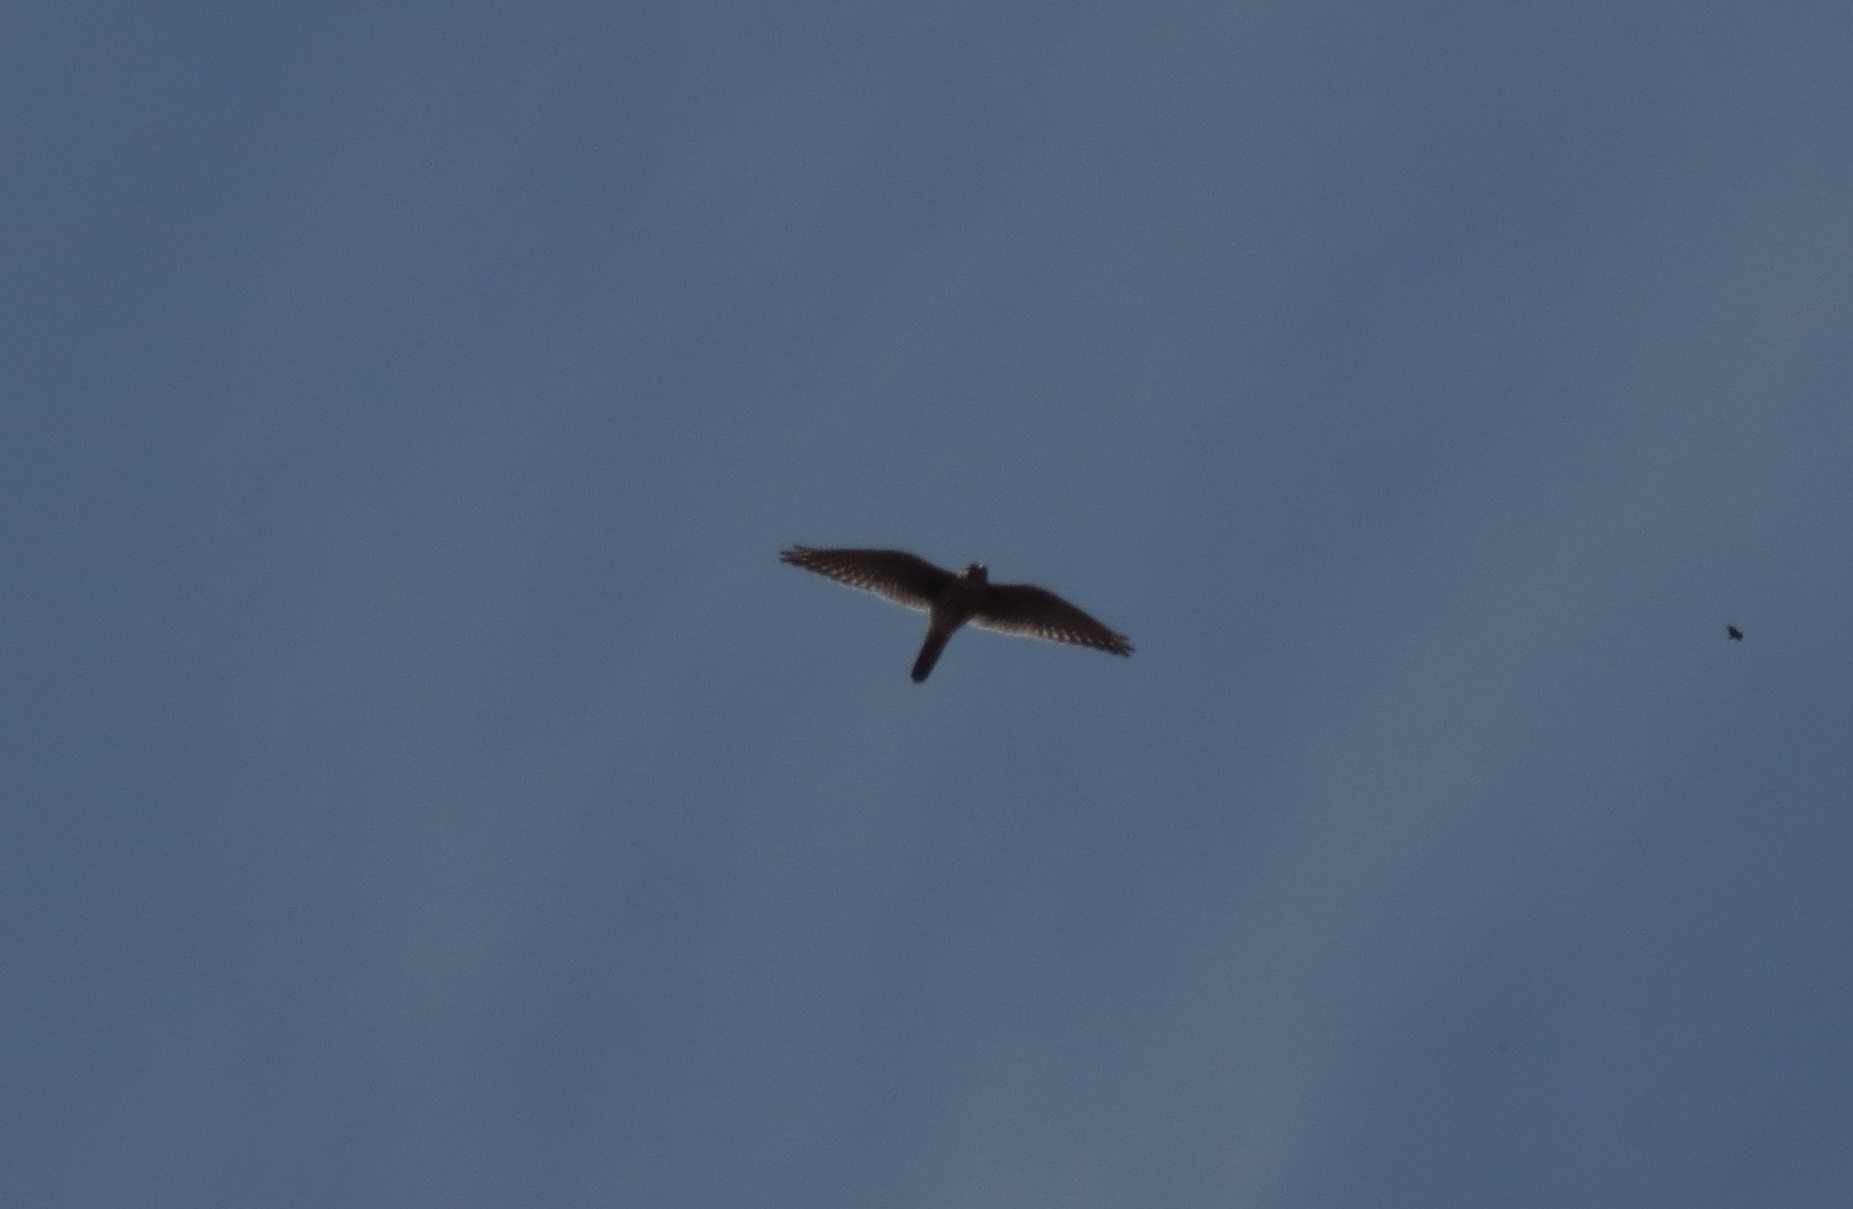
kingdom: Animalia
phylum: Chordata
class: Aves
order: Falconiformes
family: Falconidae
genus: Falco
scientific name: Falco sparverius
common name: American kestrel
